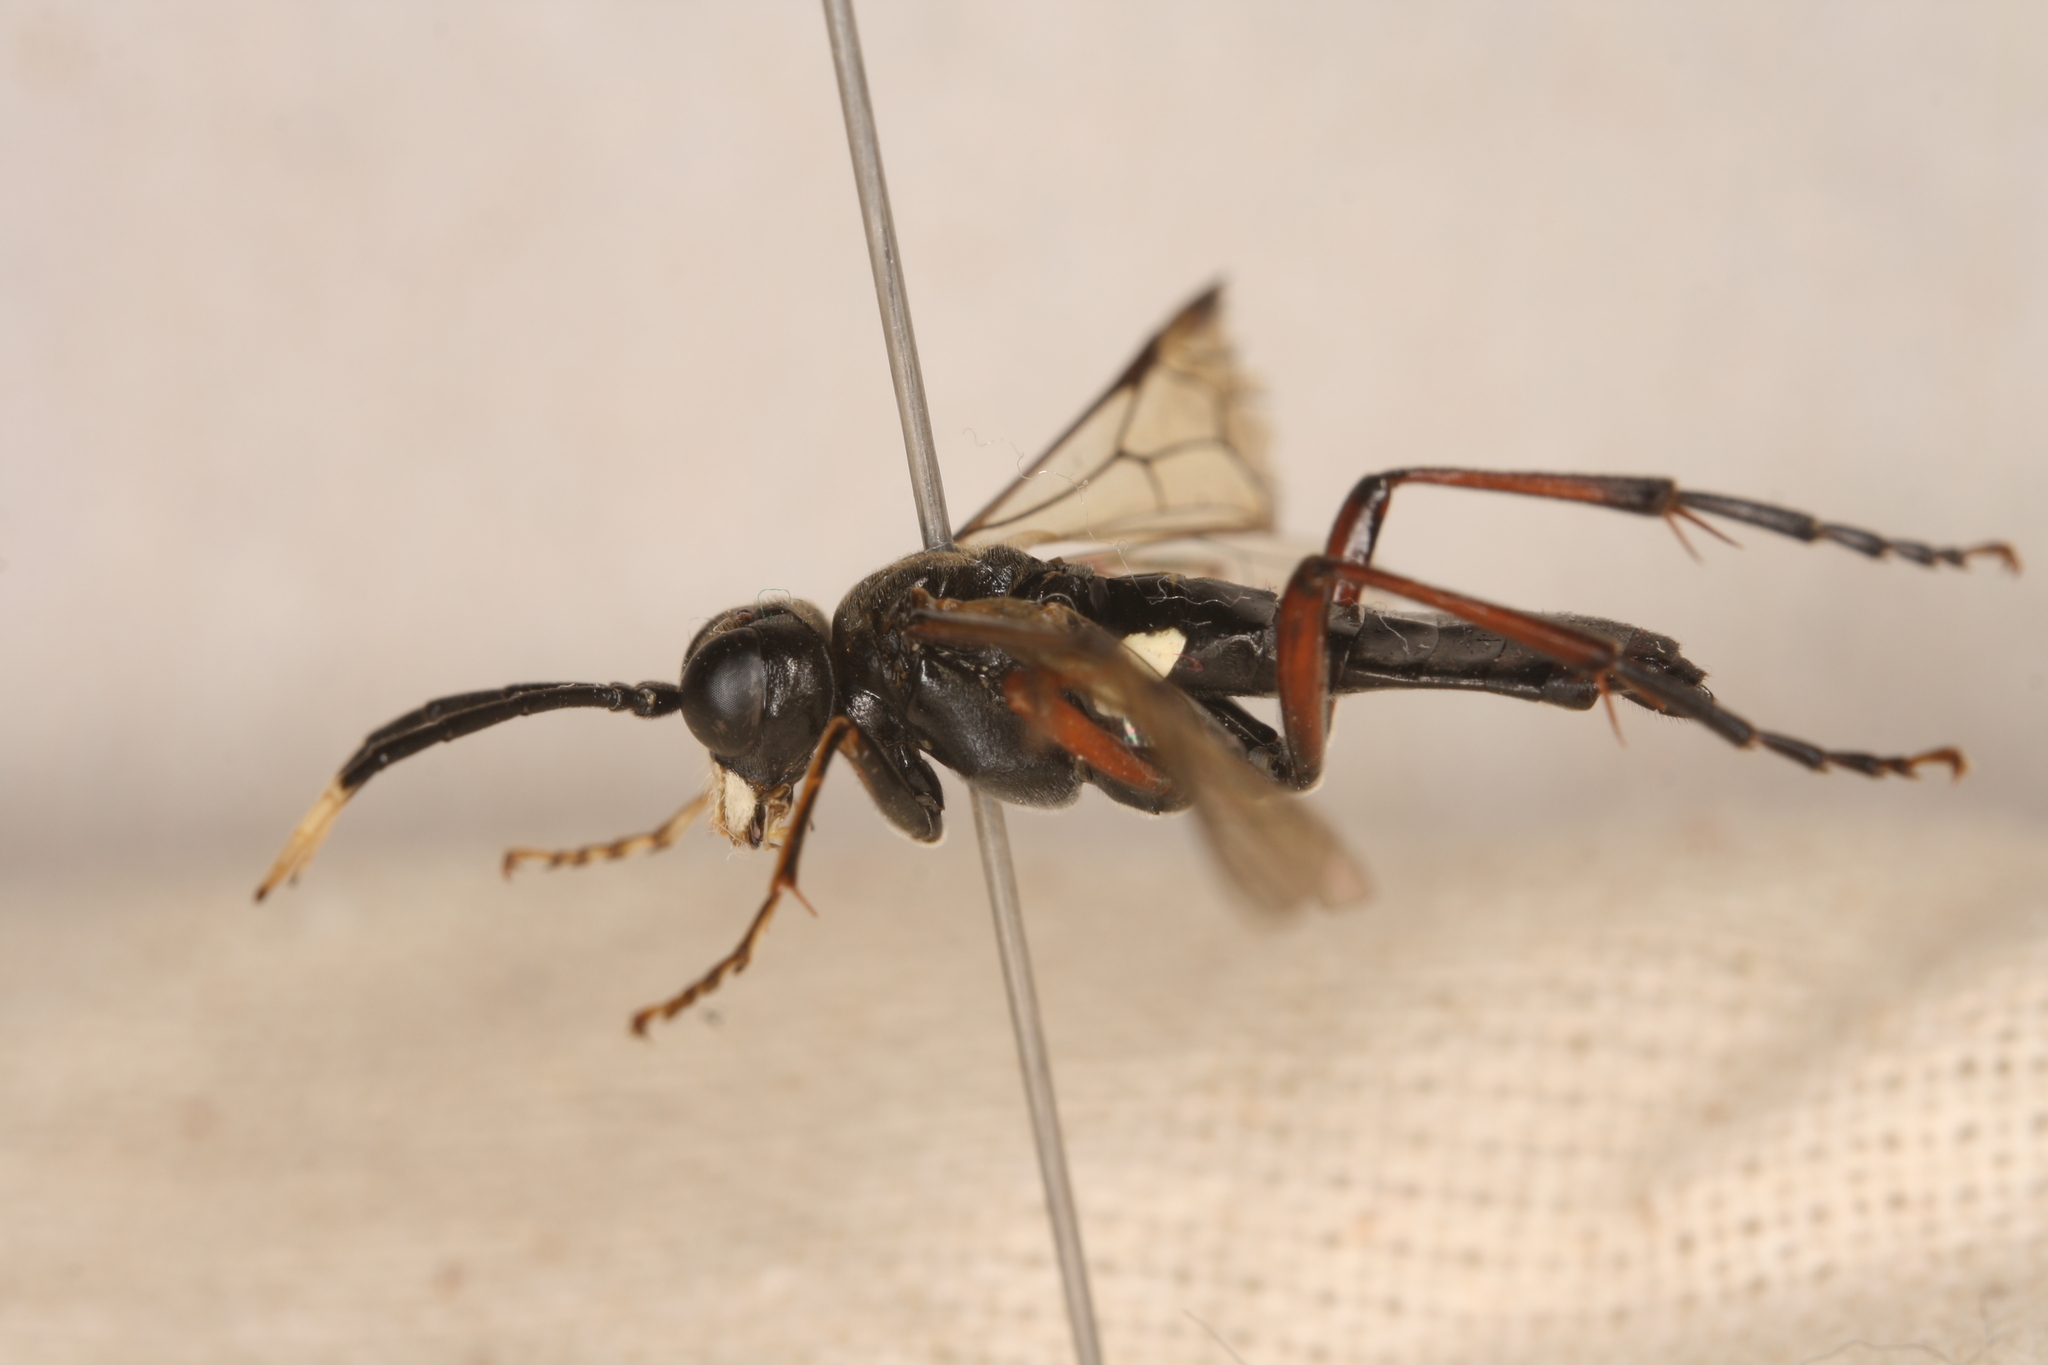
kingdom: Animalia
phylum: Arthropoda
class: Insecta
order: Hymenoptera
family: Tenthredinidae
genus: Tenthredo
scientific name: Tenthredo livida
